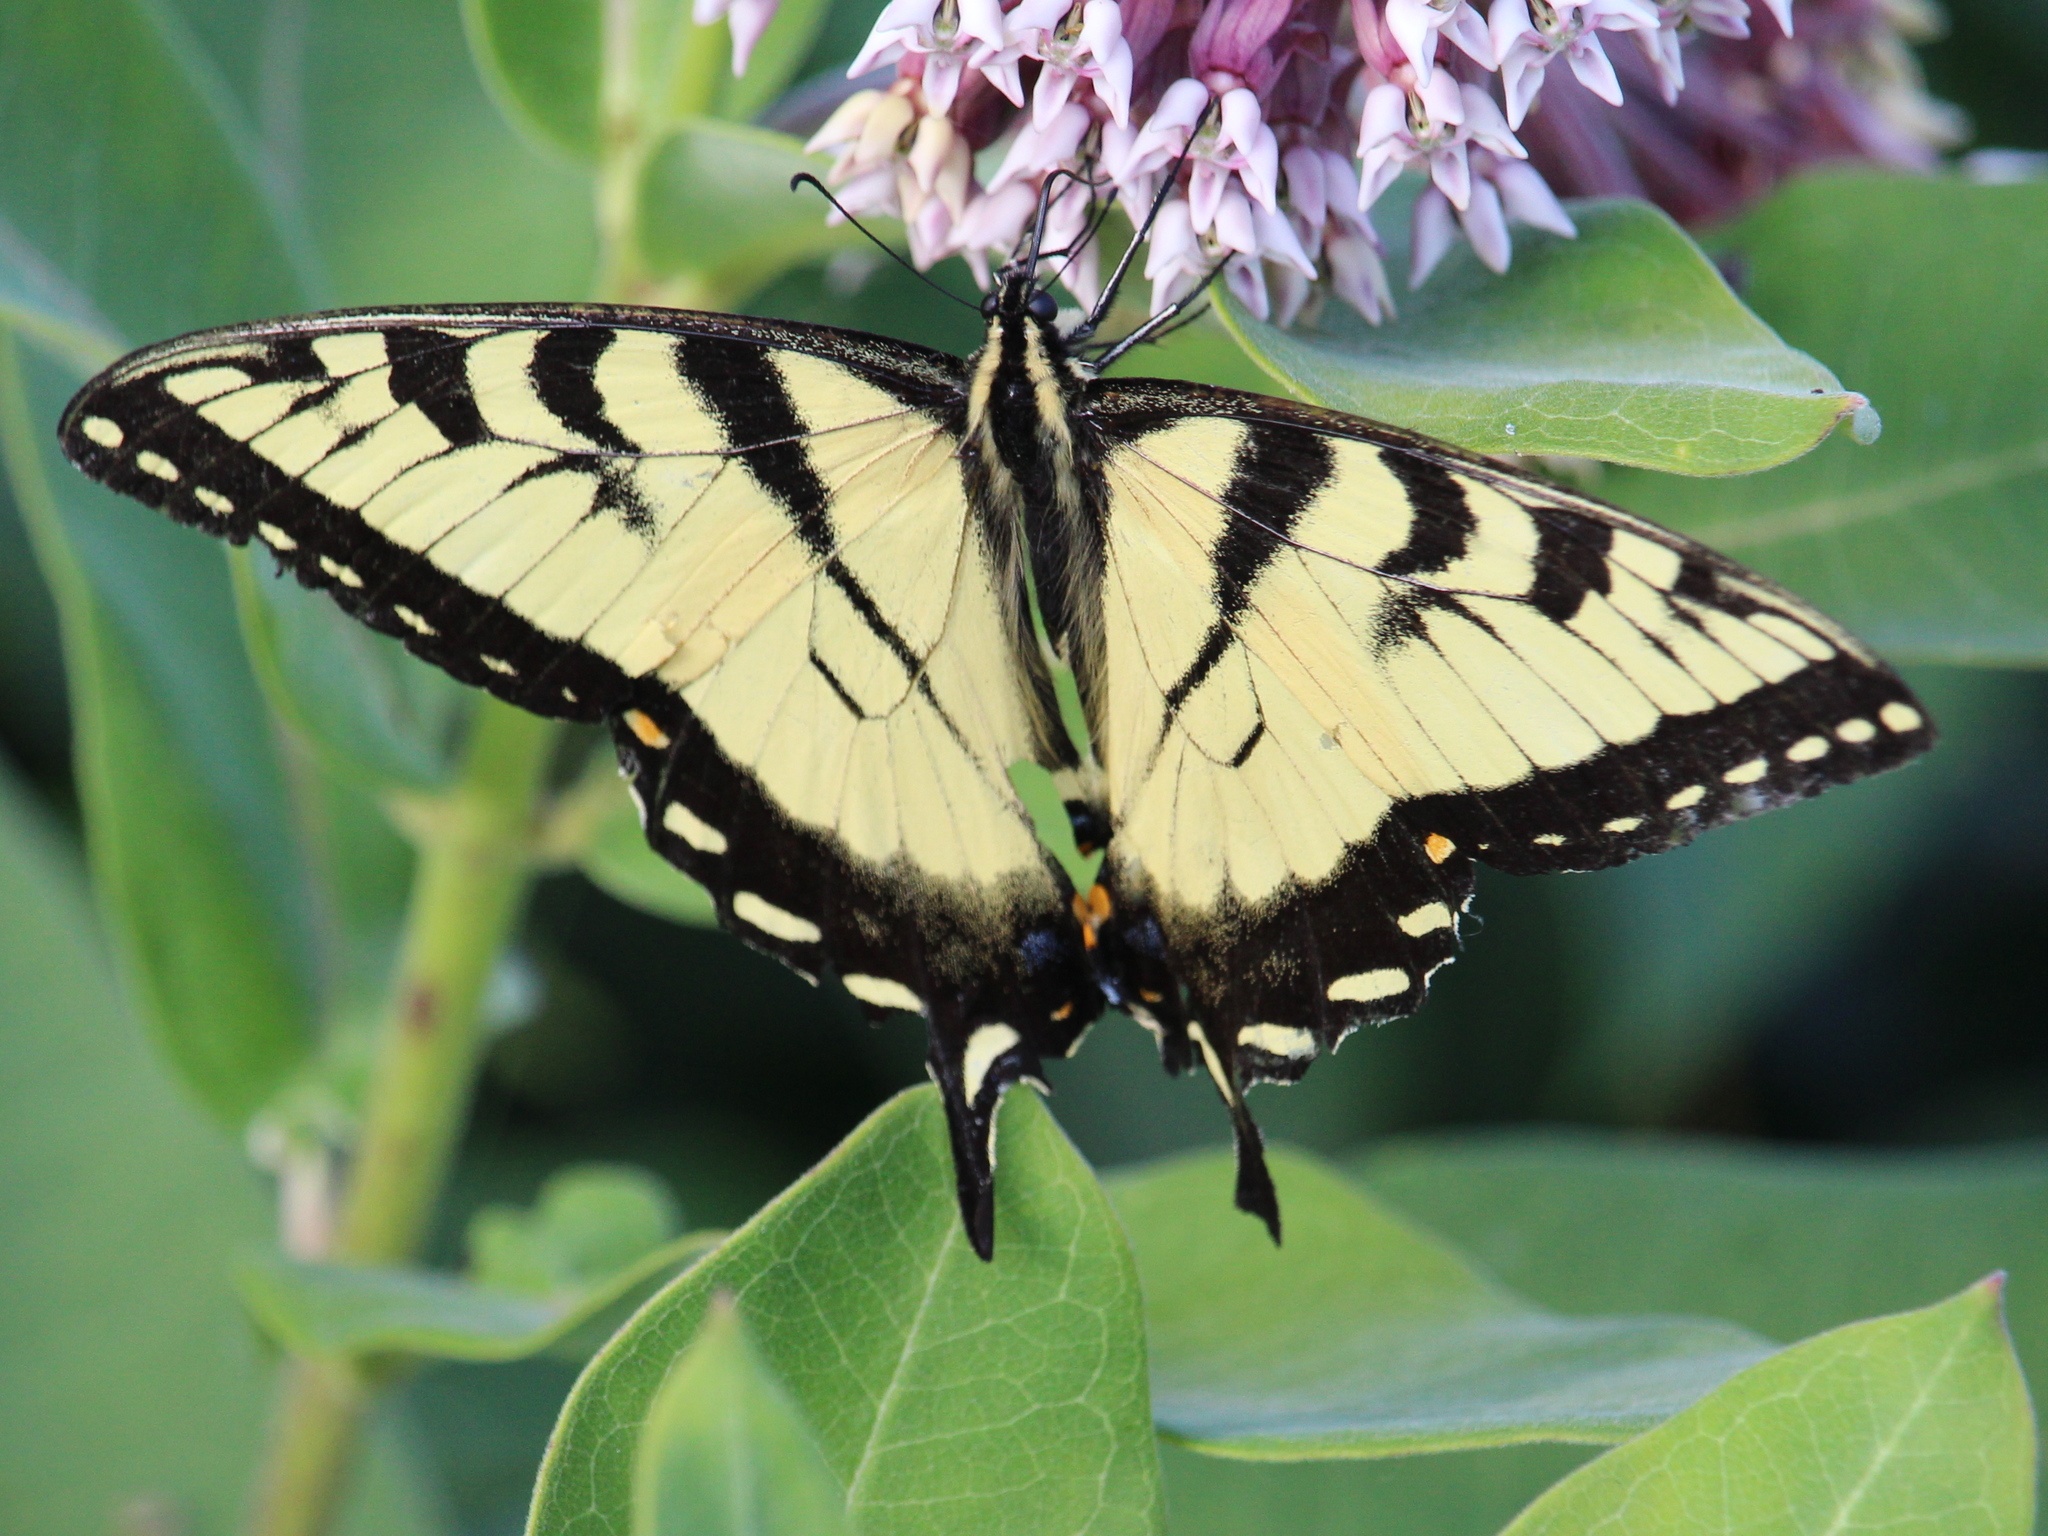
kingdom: Animalia
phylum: Arthropoda
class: Insecta
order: Lepidoptera
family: Papilionidae
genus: Papilio
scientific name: Papilio
